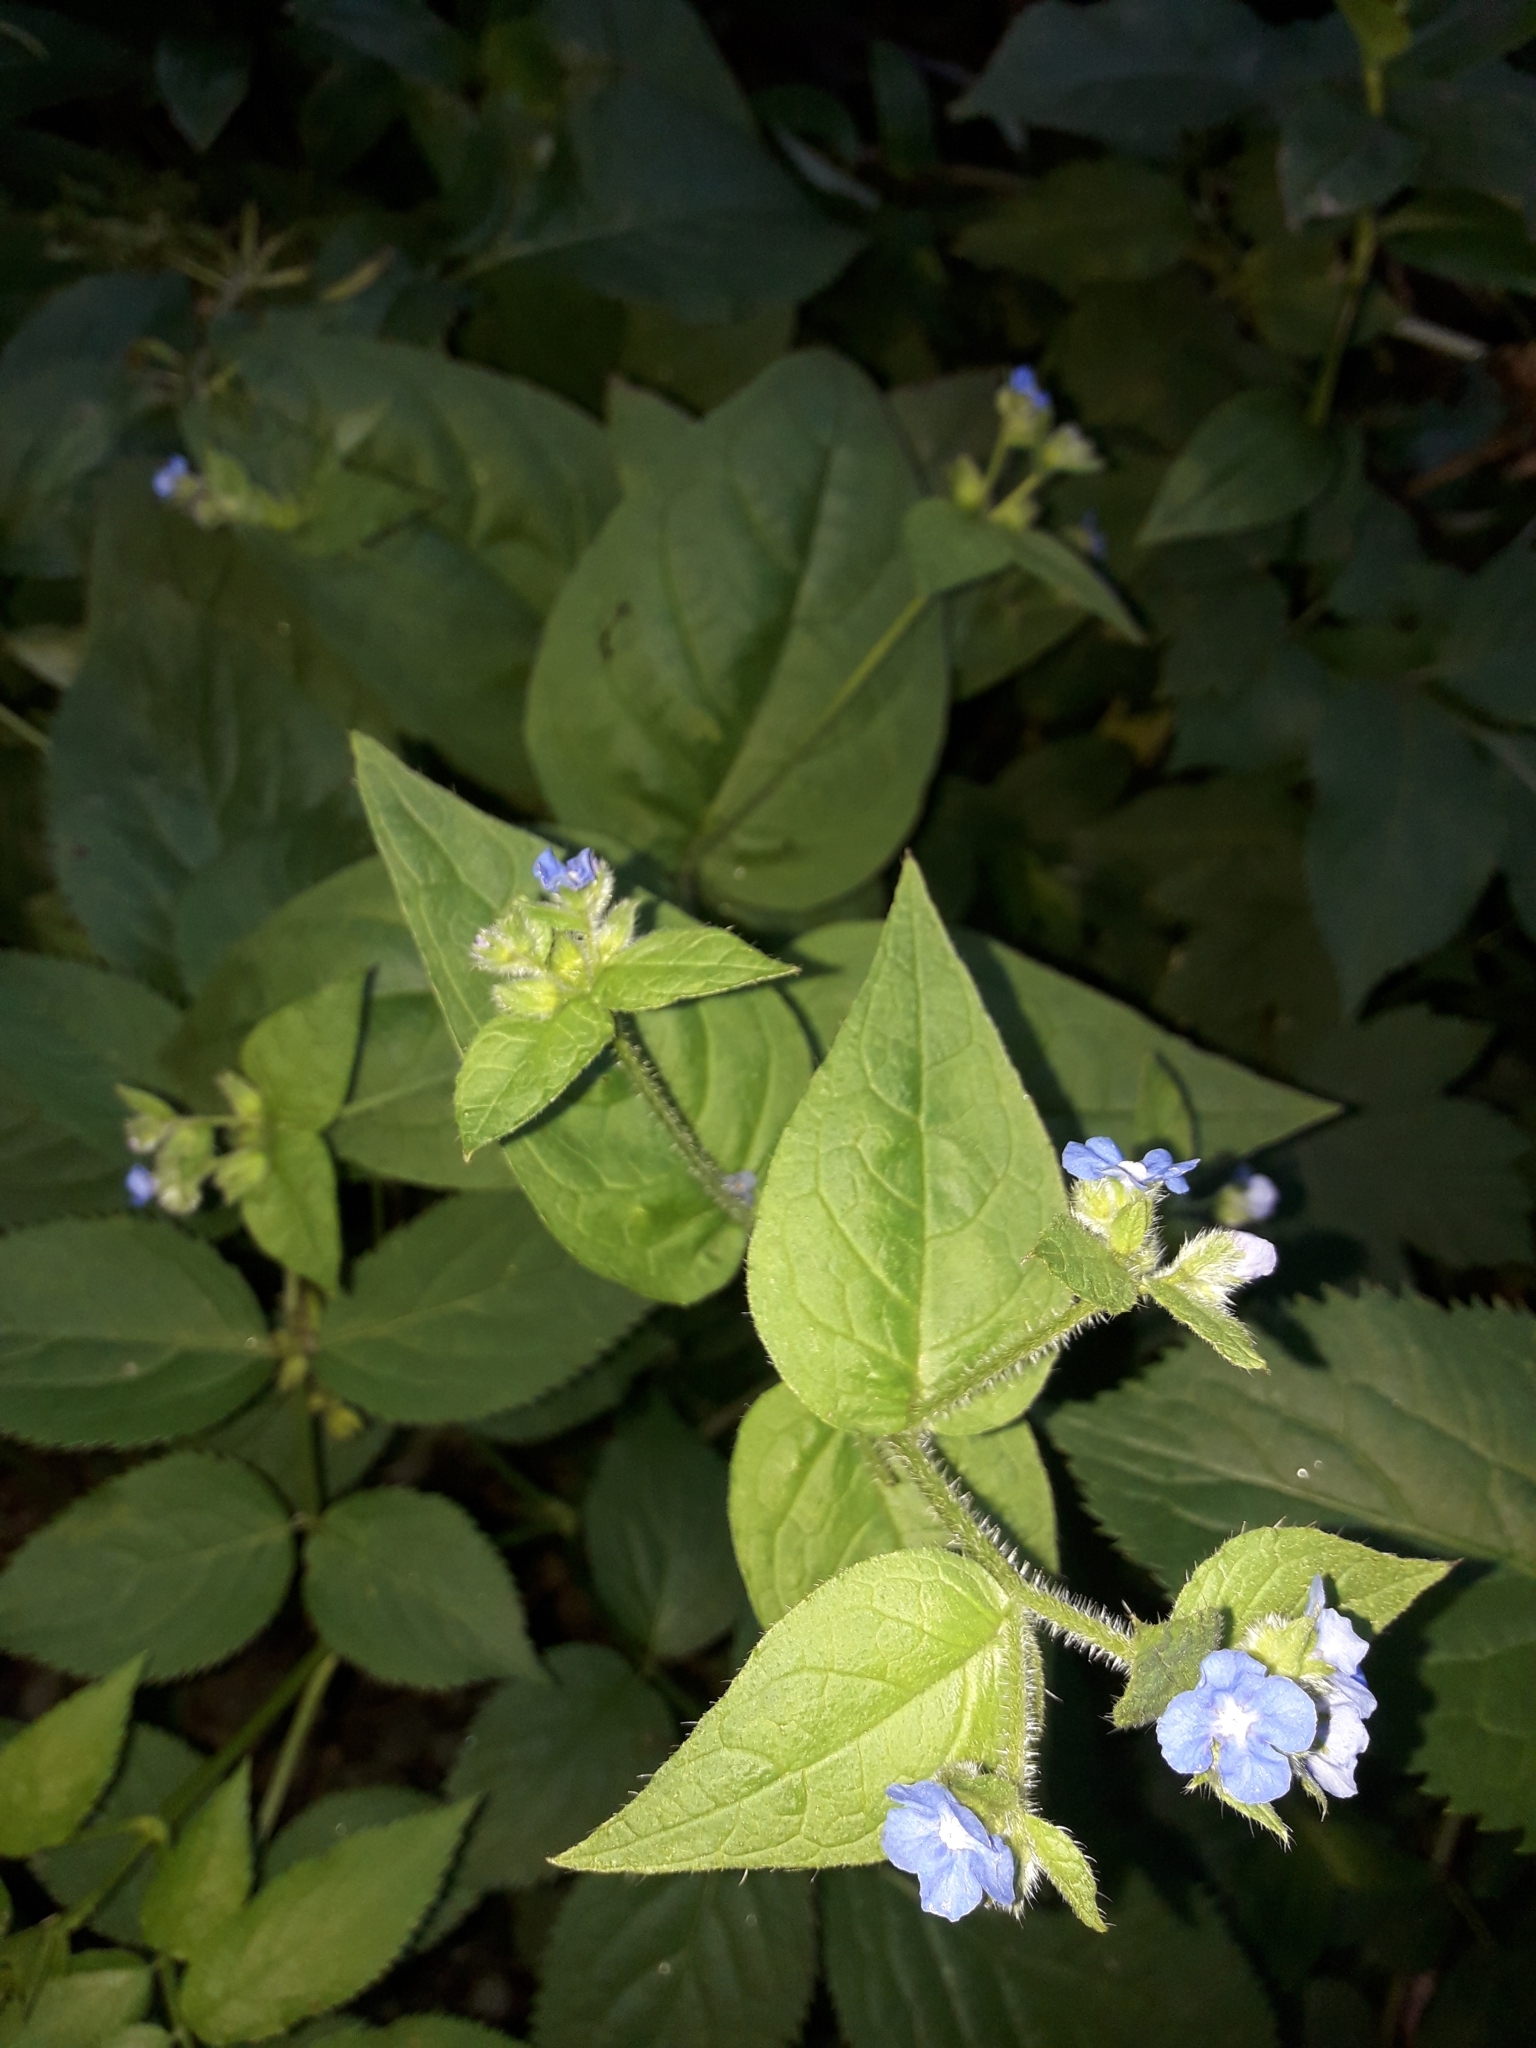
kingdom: Plantae
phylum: Tracheophyta
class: Magnoliopsida
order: Boraginales
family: Boraginaceae
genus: Pentaglottis
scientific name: Pentaglottis sempervirens
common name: Green alkanet
